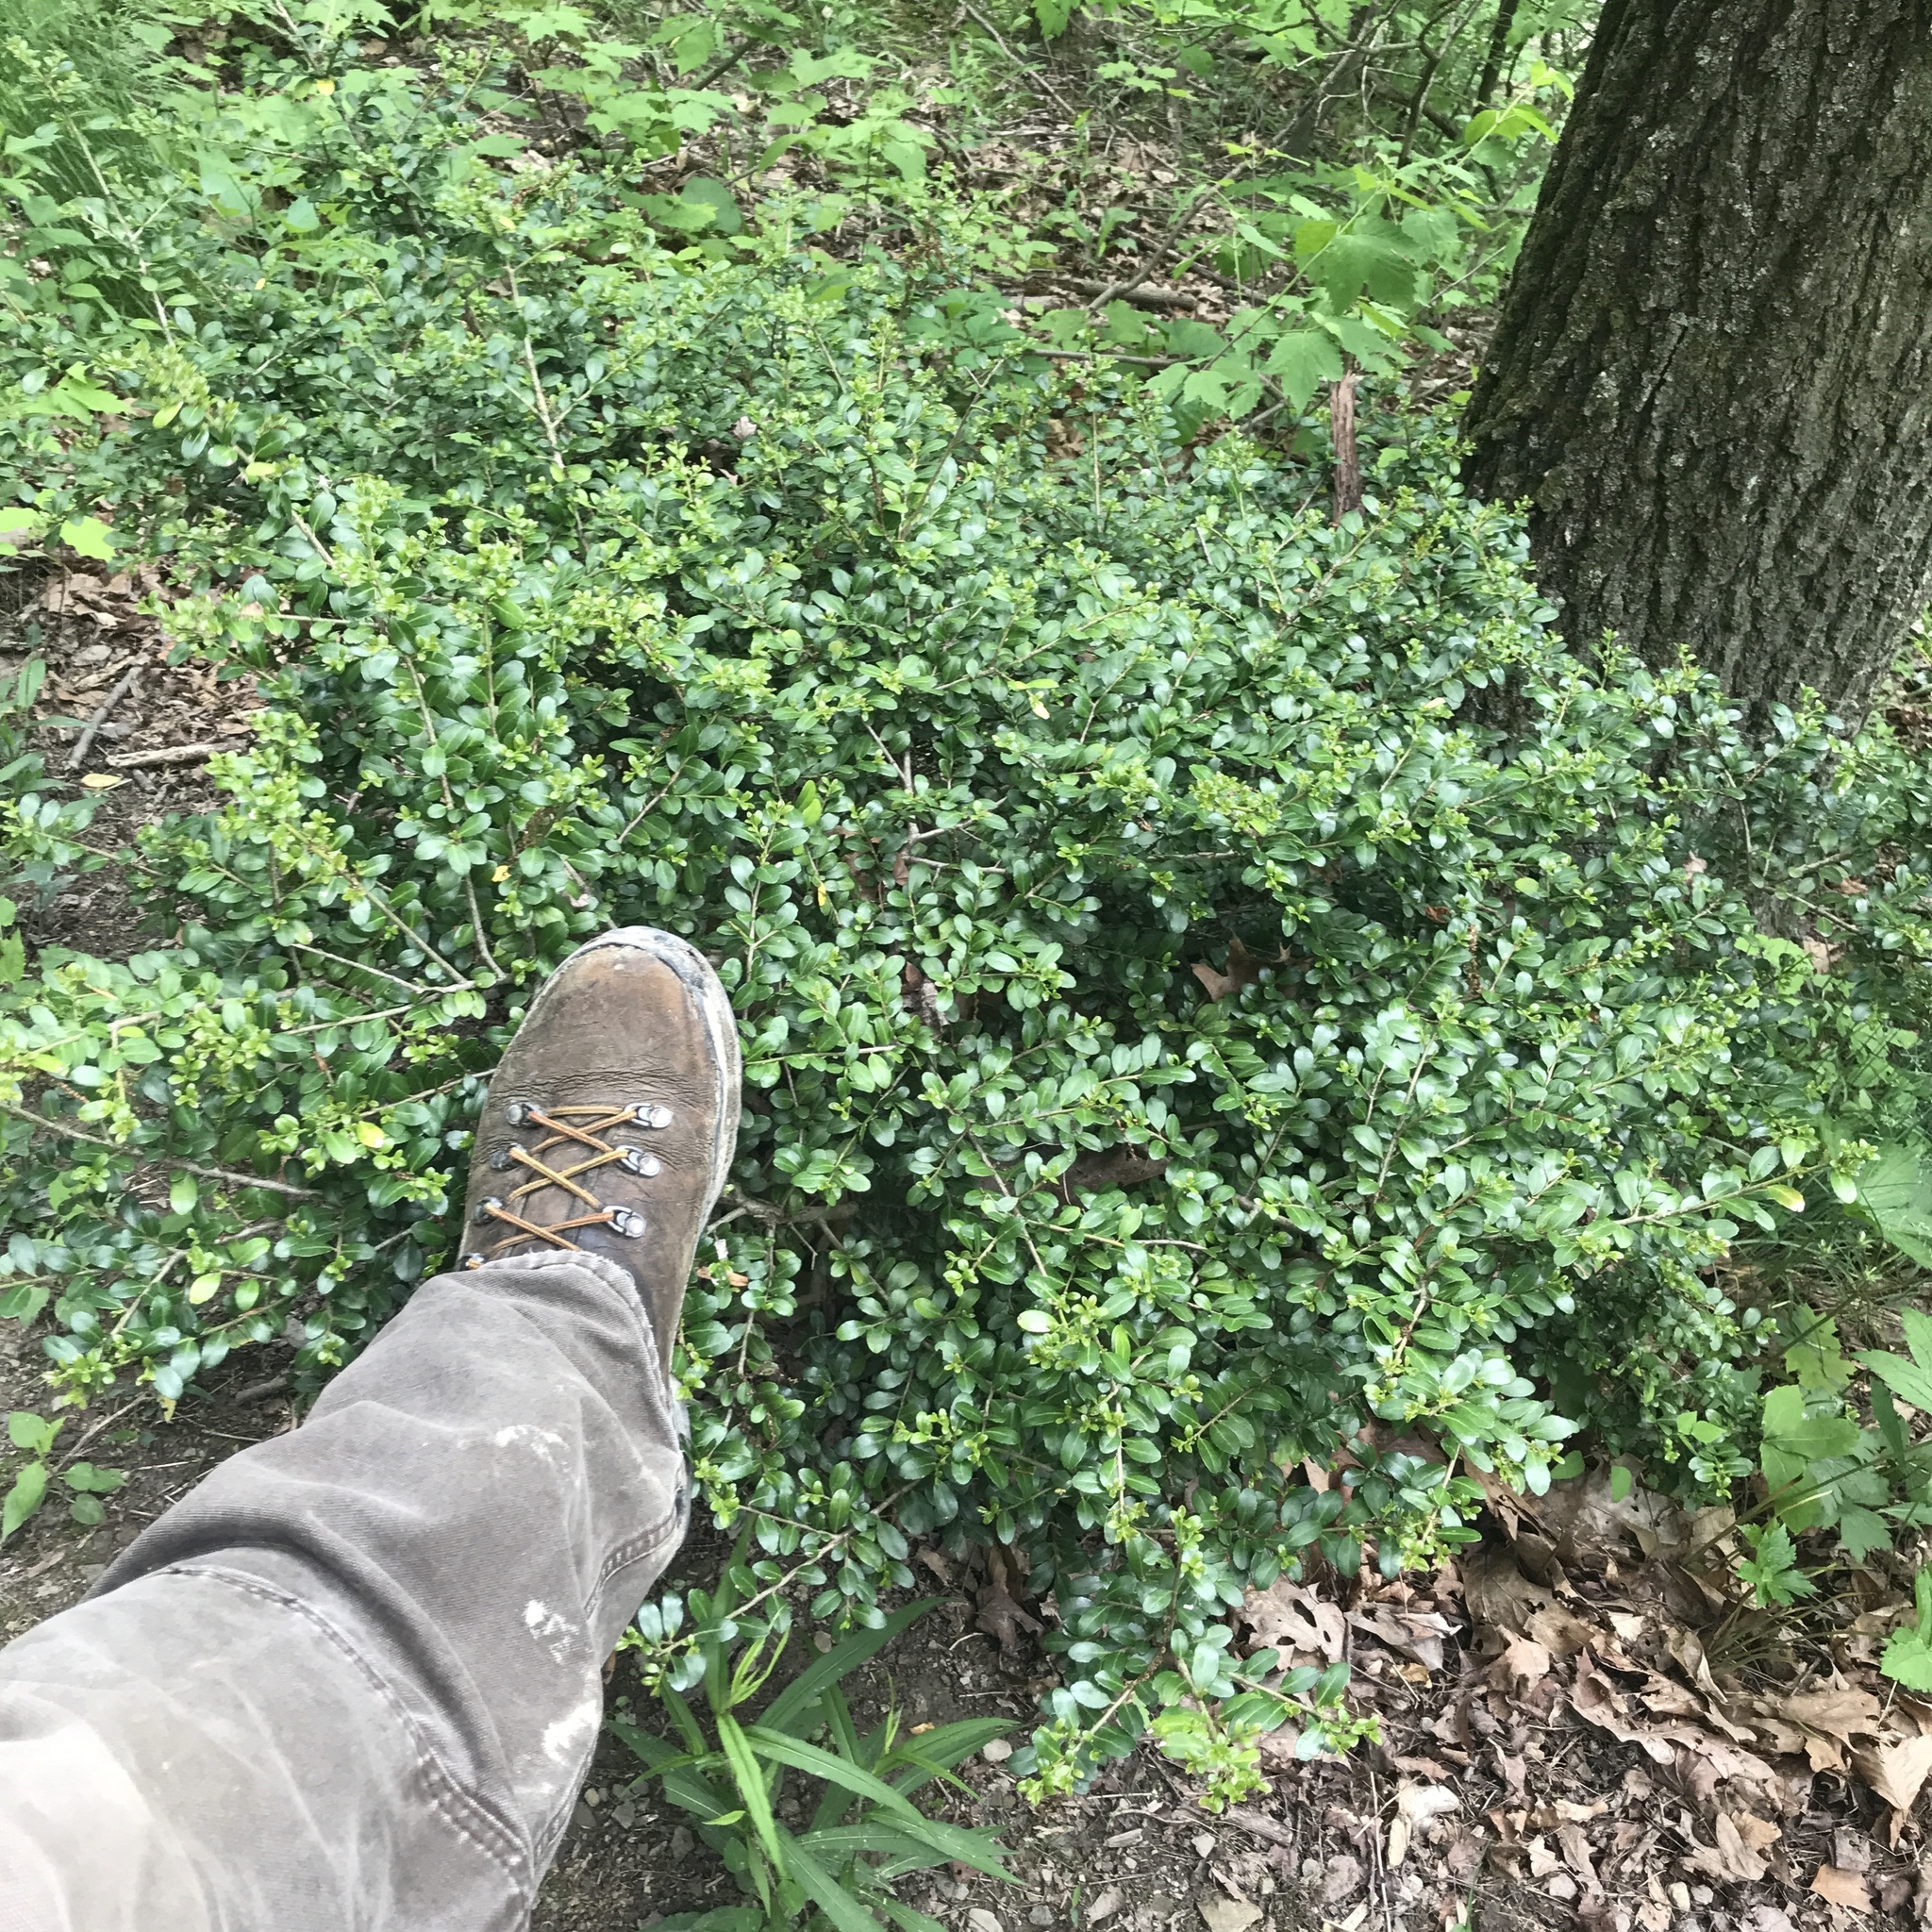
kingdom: Plantae
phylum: Tracheophyta
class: Magnoliopsida
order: Aquifoliales
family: Aquifoliaceae
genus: Ilex
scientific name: Ilex crenata
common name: Japanese holly
